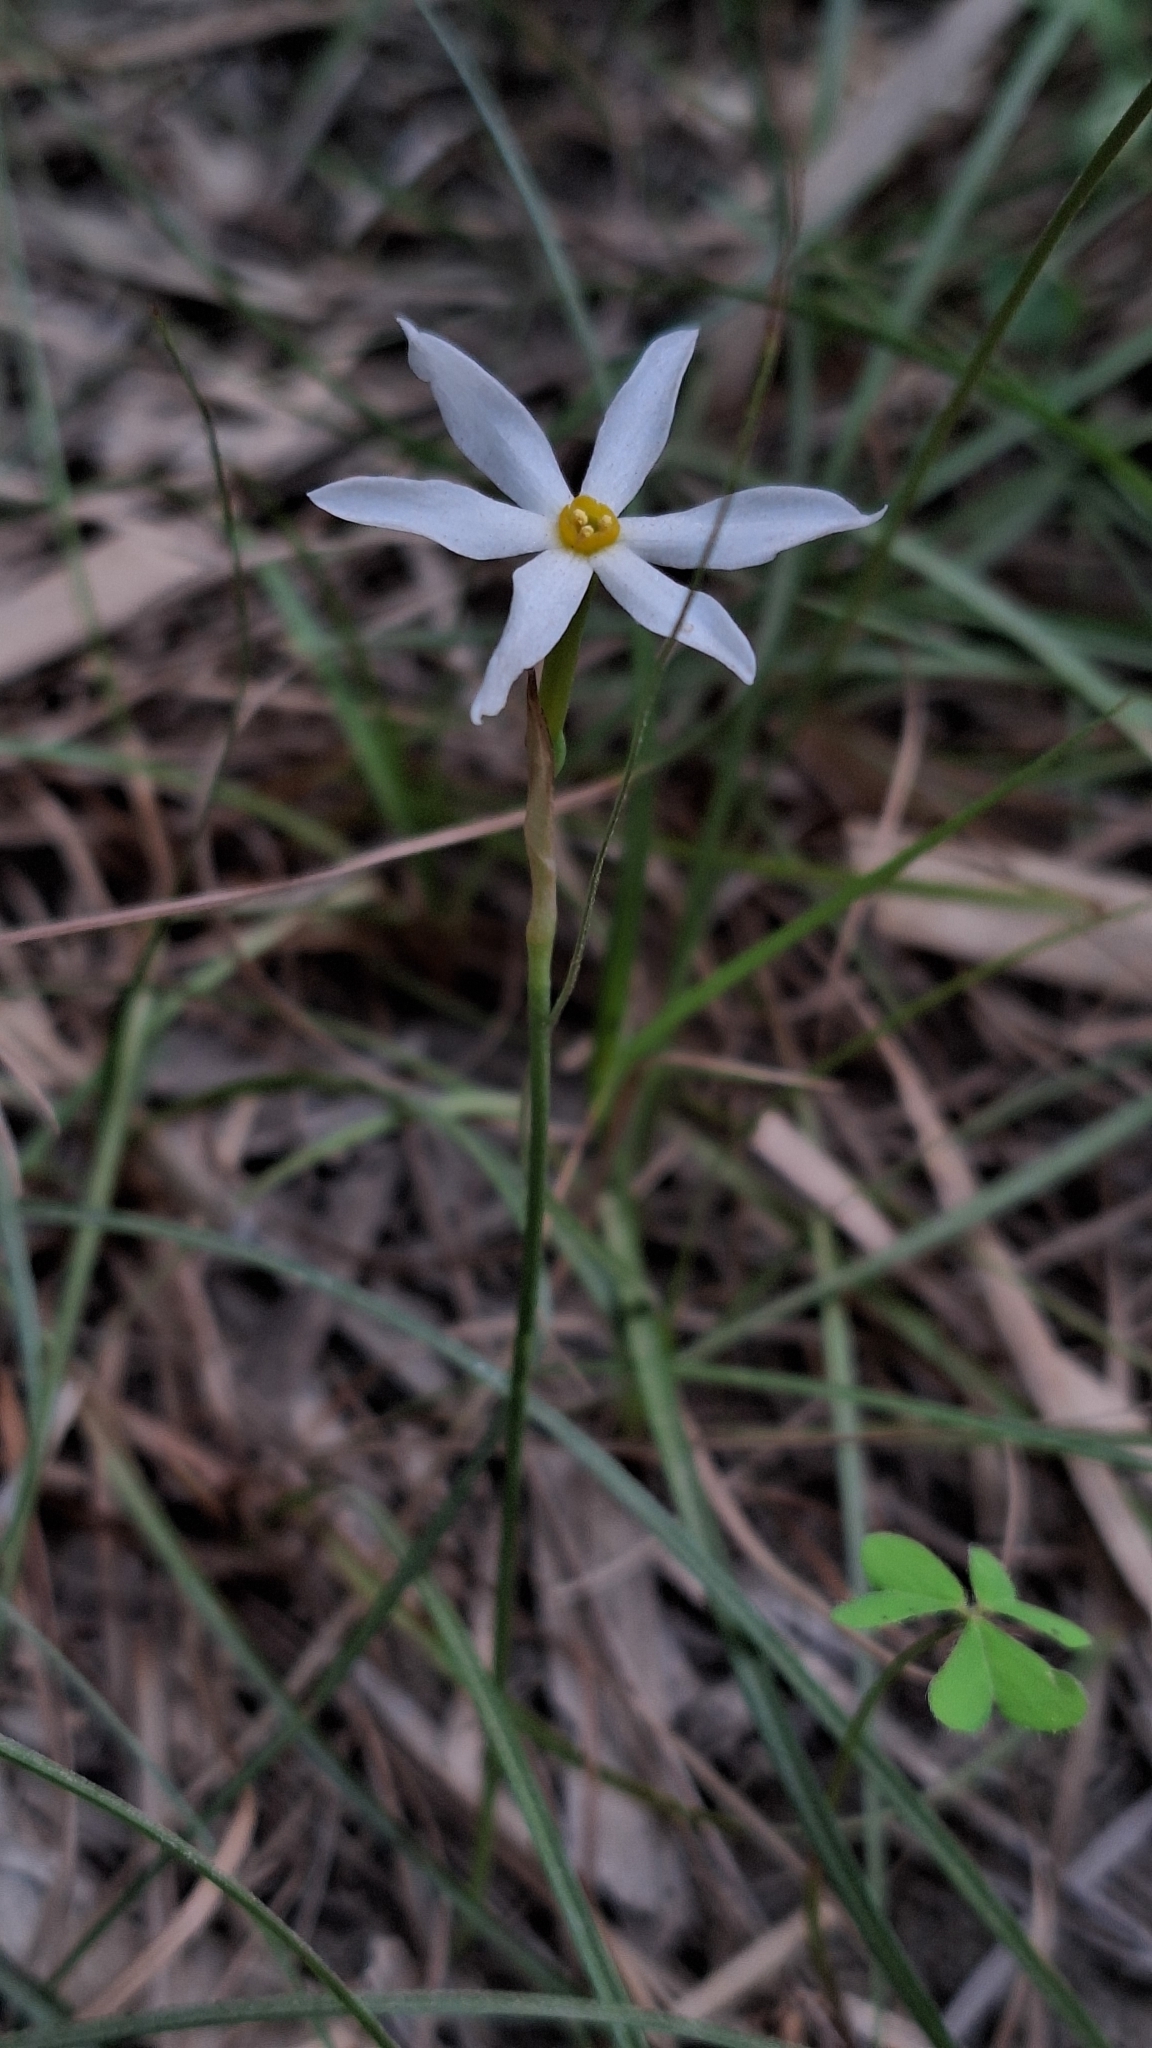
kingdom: Plantae
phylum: Tracheophyta
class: Liliopsida
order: Asparagales
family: Amaryllidaceae
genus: Narcissus
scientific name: Narcissus deficiens
